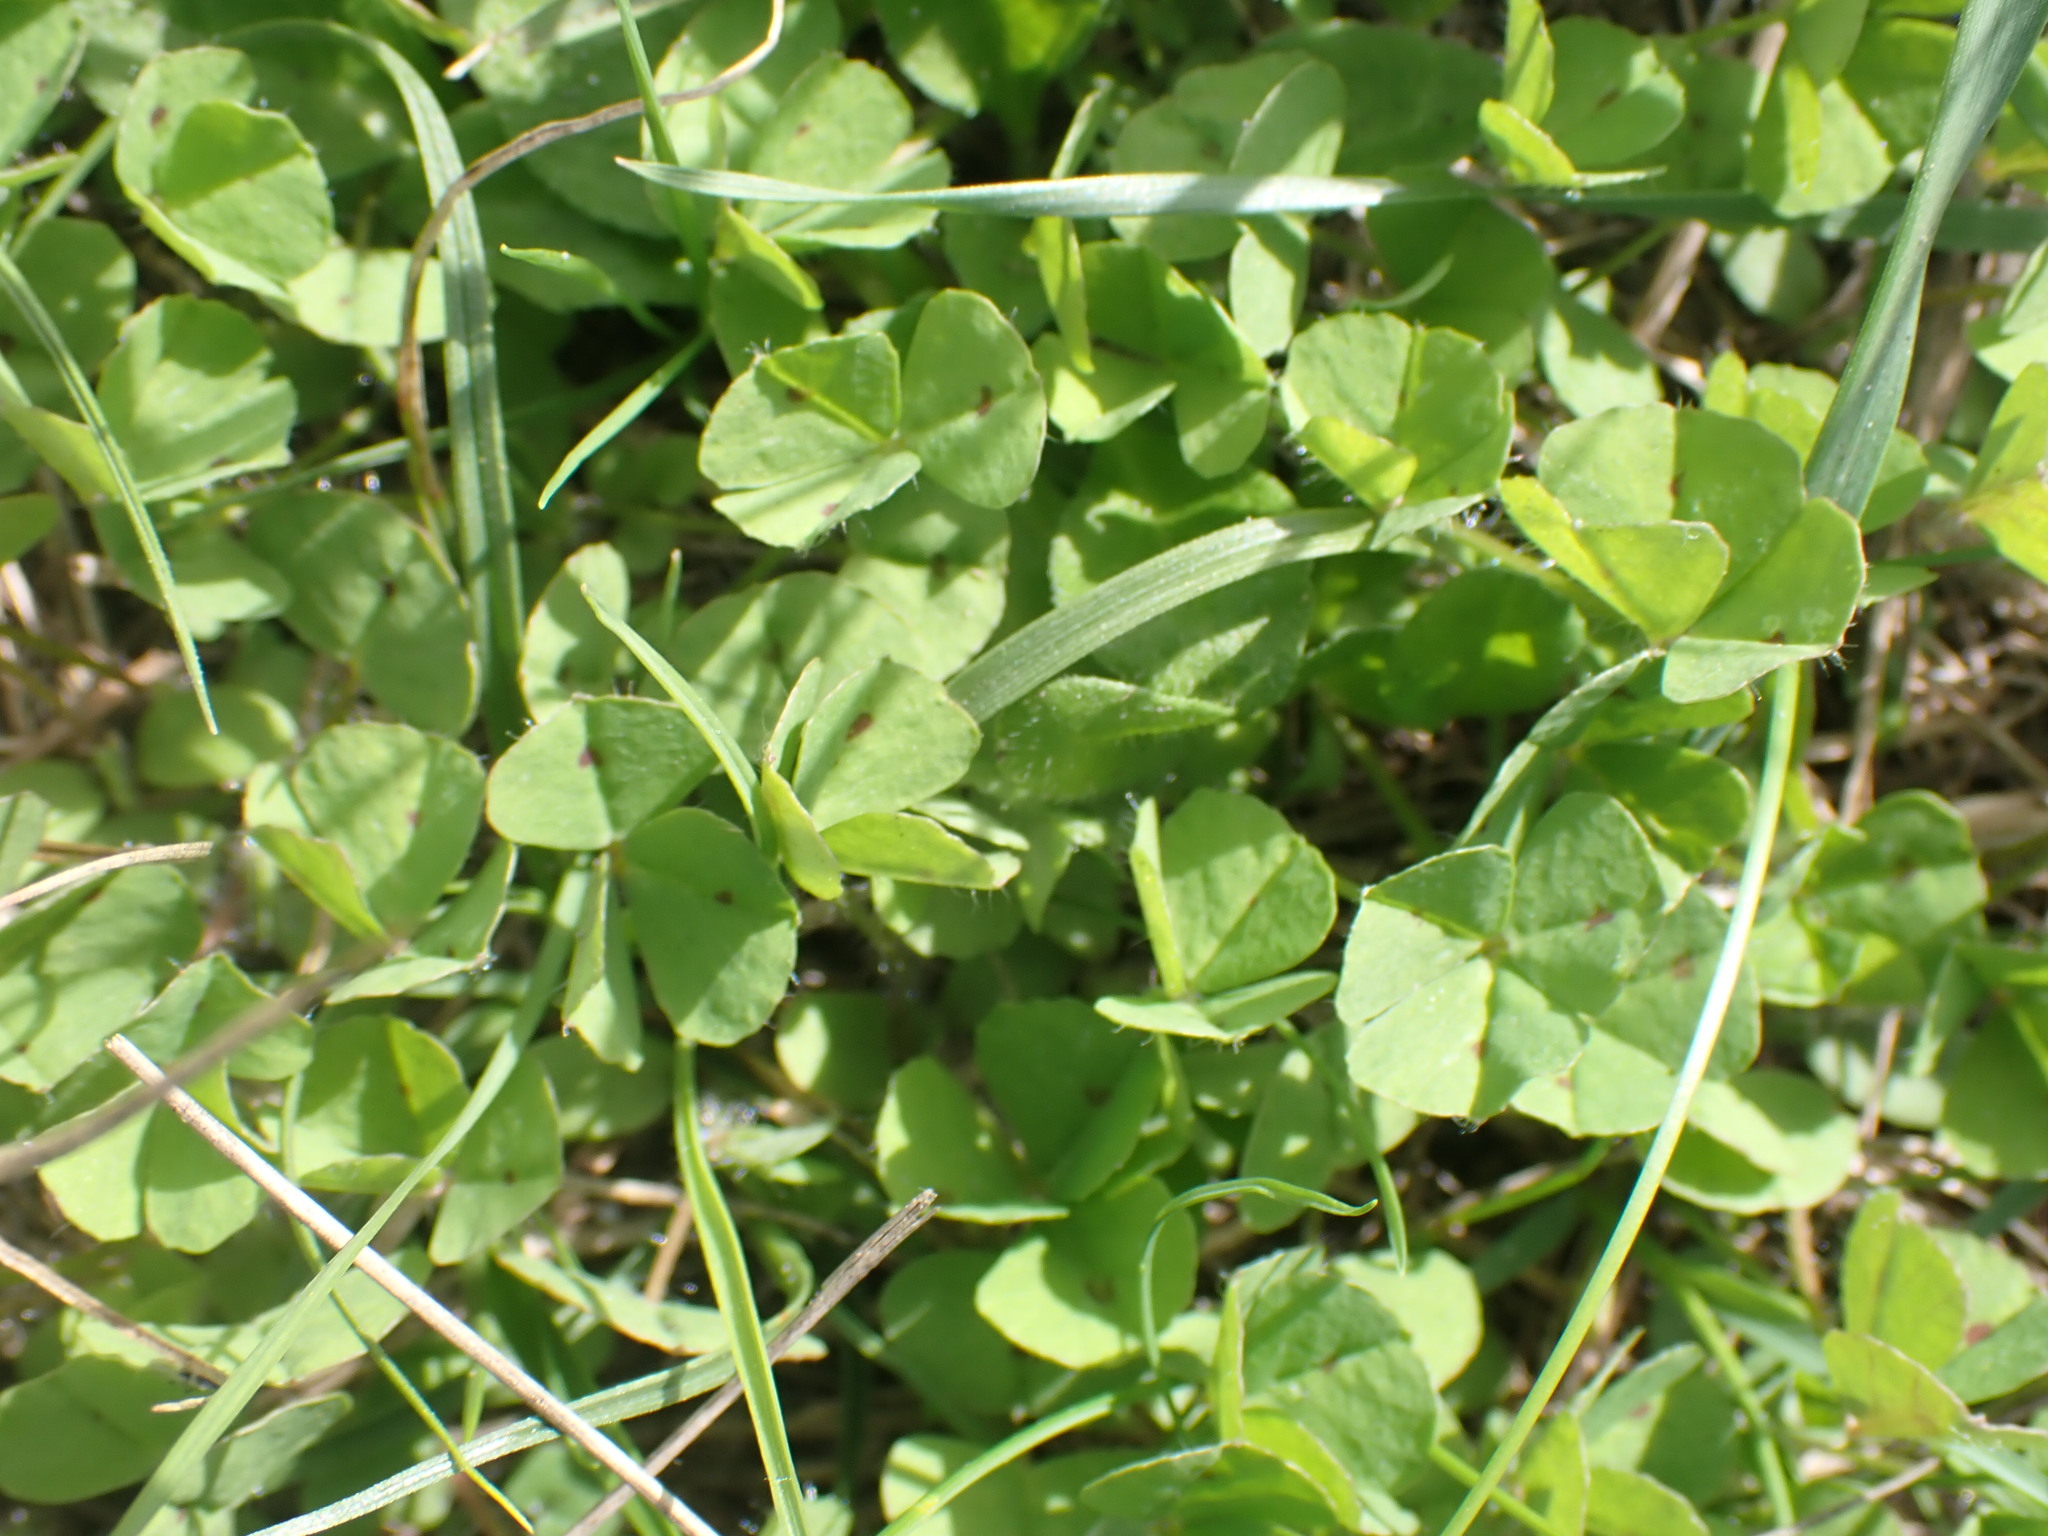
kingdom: Plantae
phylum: Tracheophyta
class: Magnoliopsida
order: Fabales
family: Fabaceae
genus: Medicago
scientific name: Medicago arabica
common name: Spotted medick
